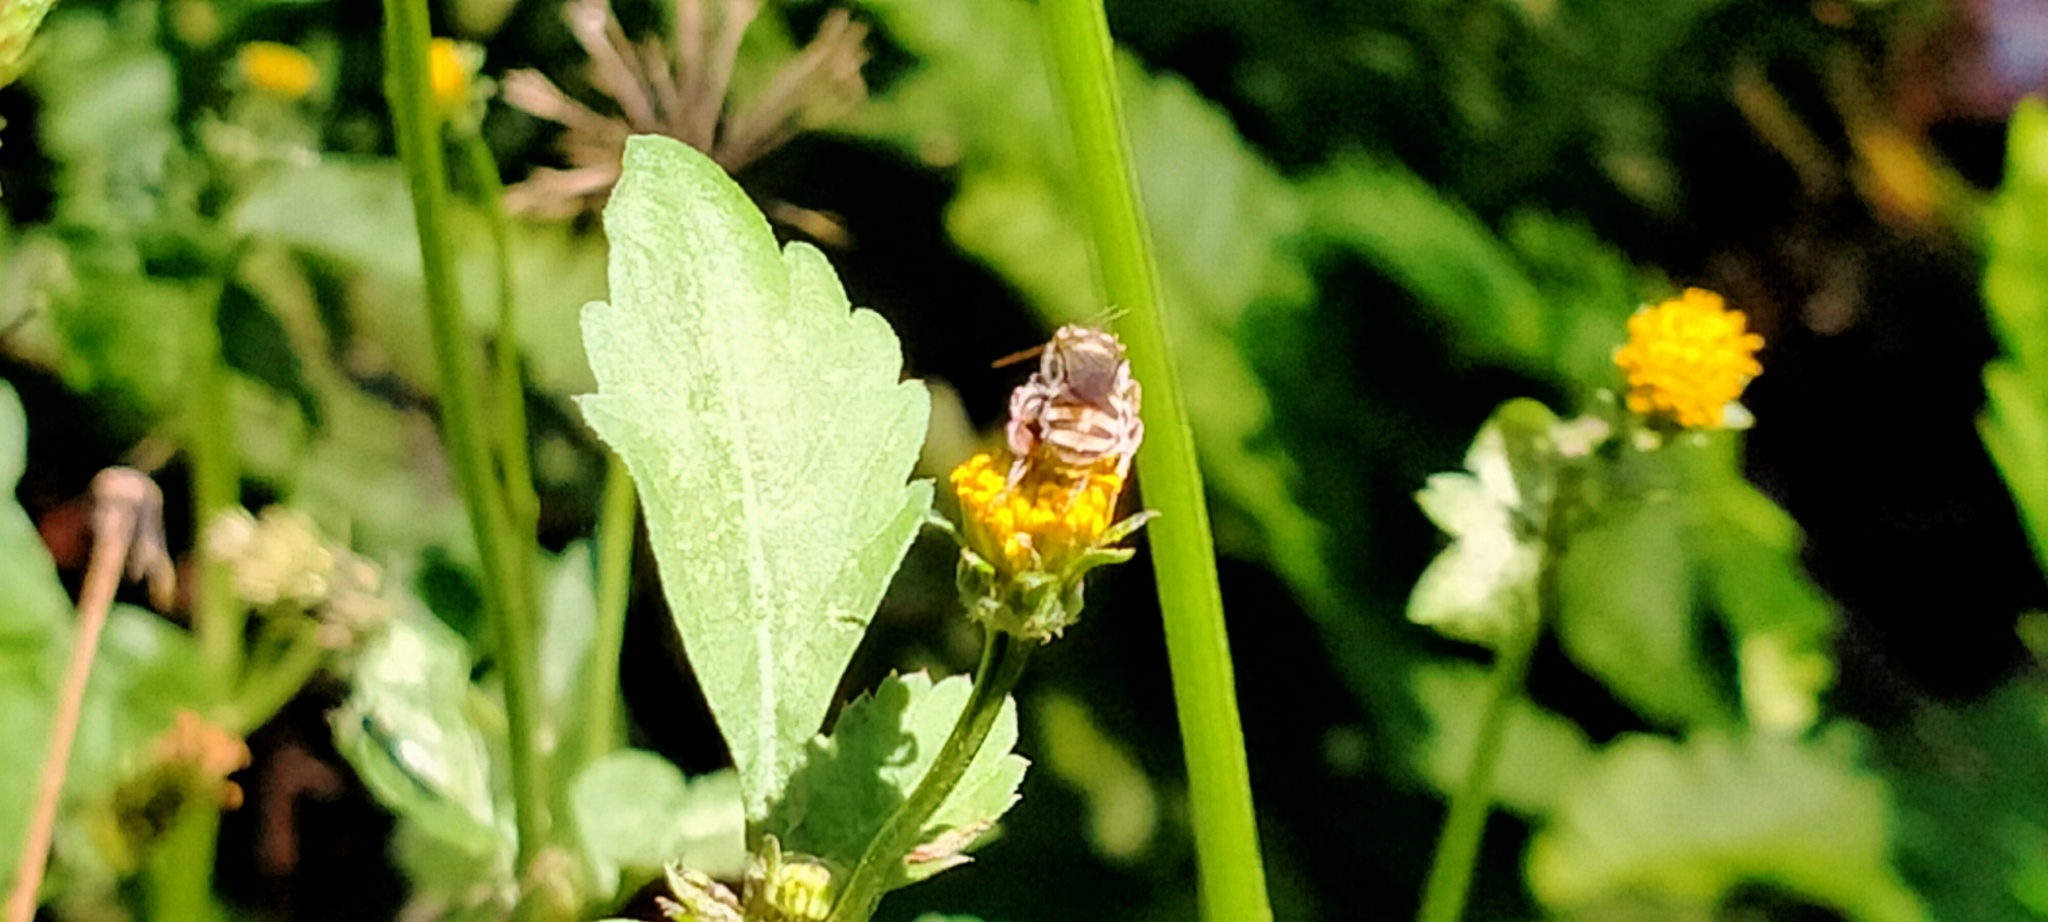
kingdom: Plantae
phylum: Tracheophyta
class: Magnoliopsida
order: Asterales
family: Asteraceae
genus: Bidens
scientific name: Bidens pilosa
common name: Black-jack
